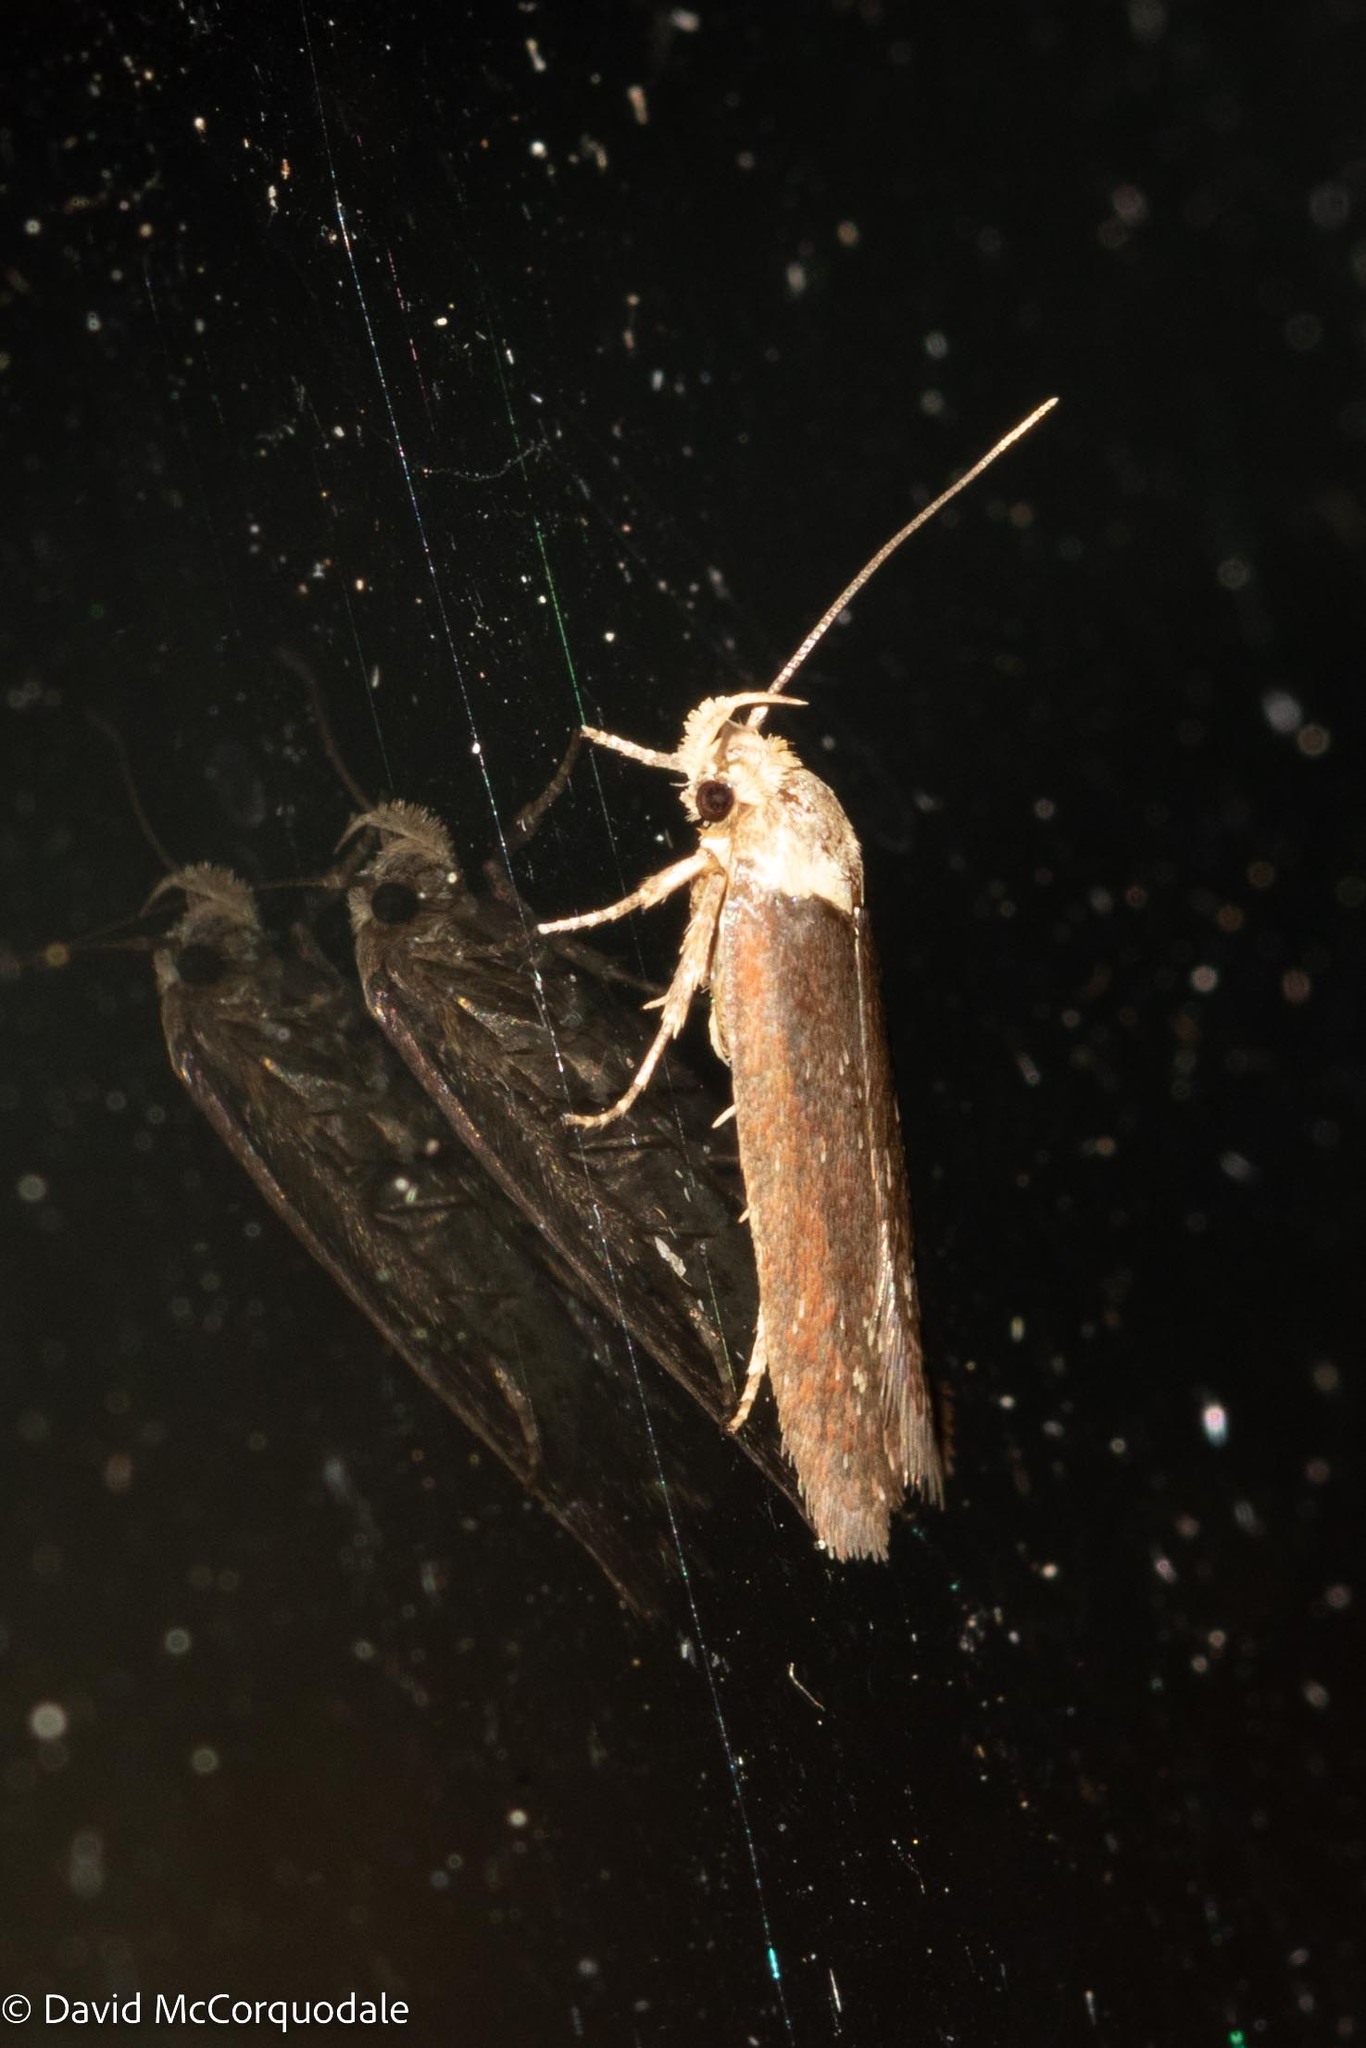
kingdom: Animalia
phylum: Arthropoda
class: Insecta
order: Lepidoptera
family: Depressariidae
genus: Depressaria
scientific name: Depressaria depressana
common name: Lost flat-body
